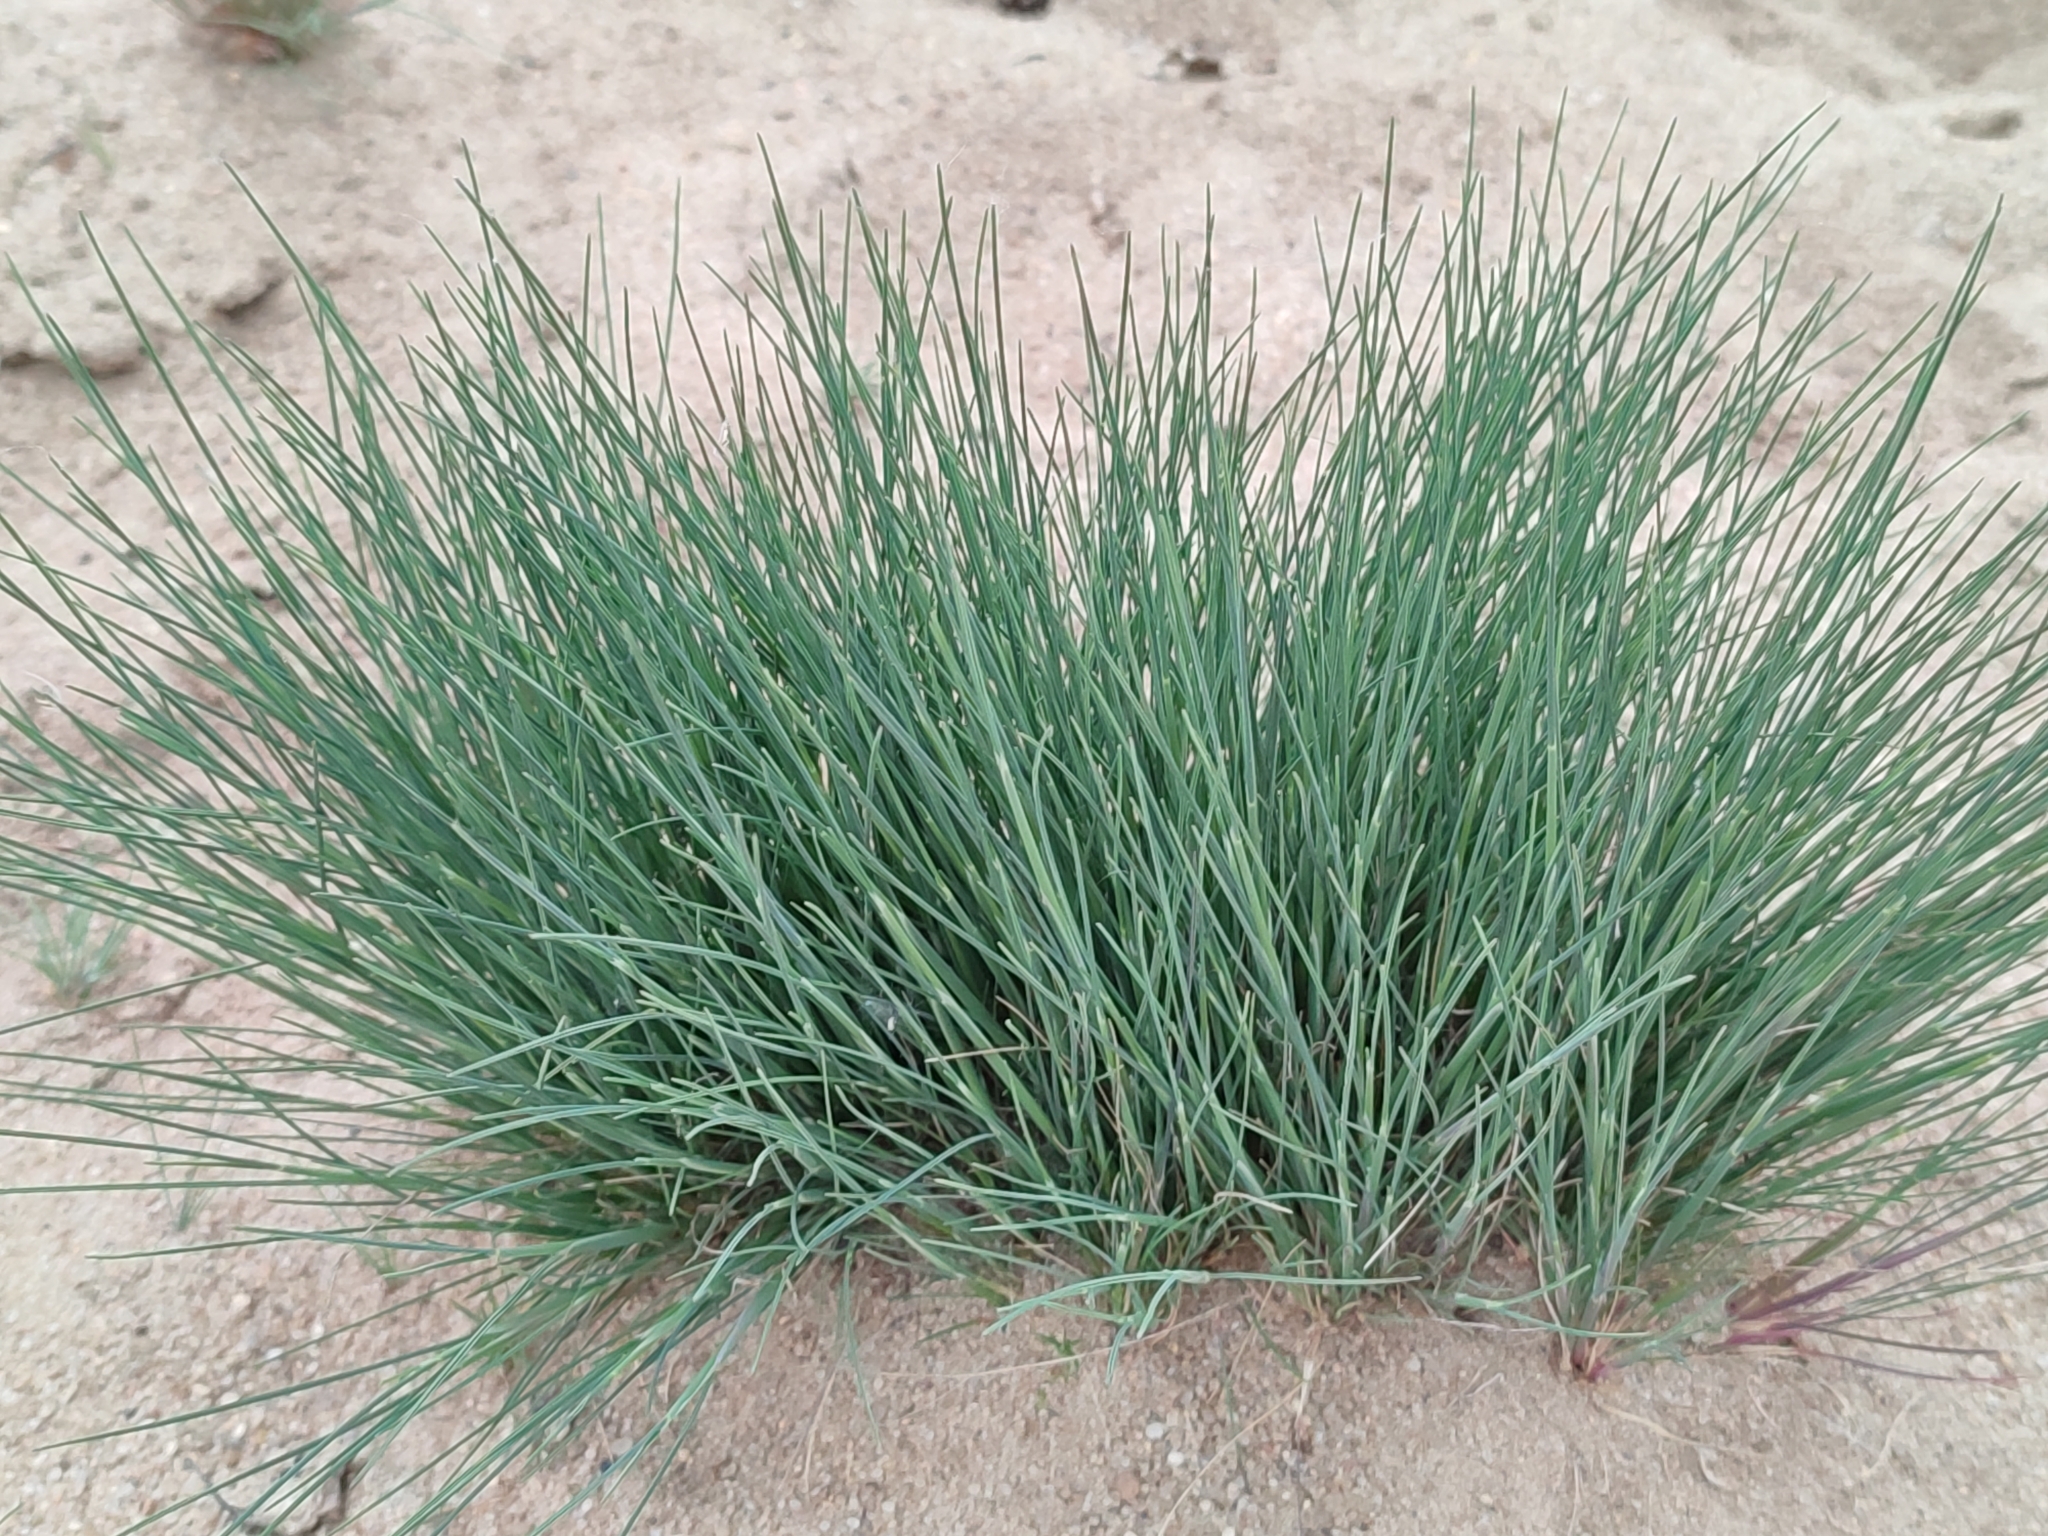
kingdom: Plantae
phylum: Tracheophyta
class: Liliopsida
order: Poales
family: Poaceae
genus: Corynephorus
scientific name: Corynephorus canescens
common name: Grey hair-grass
